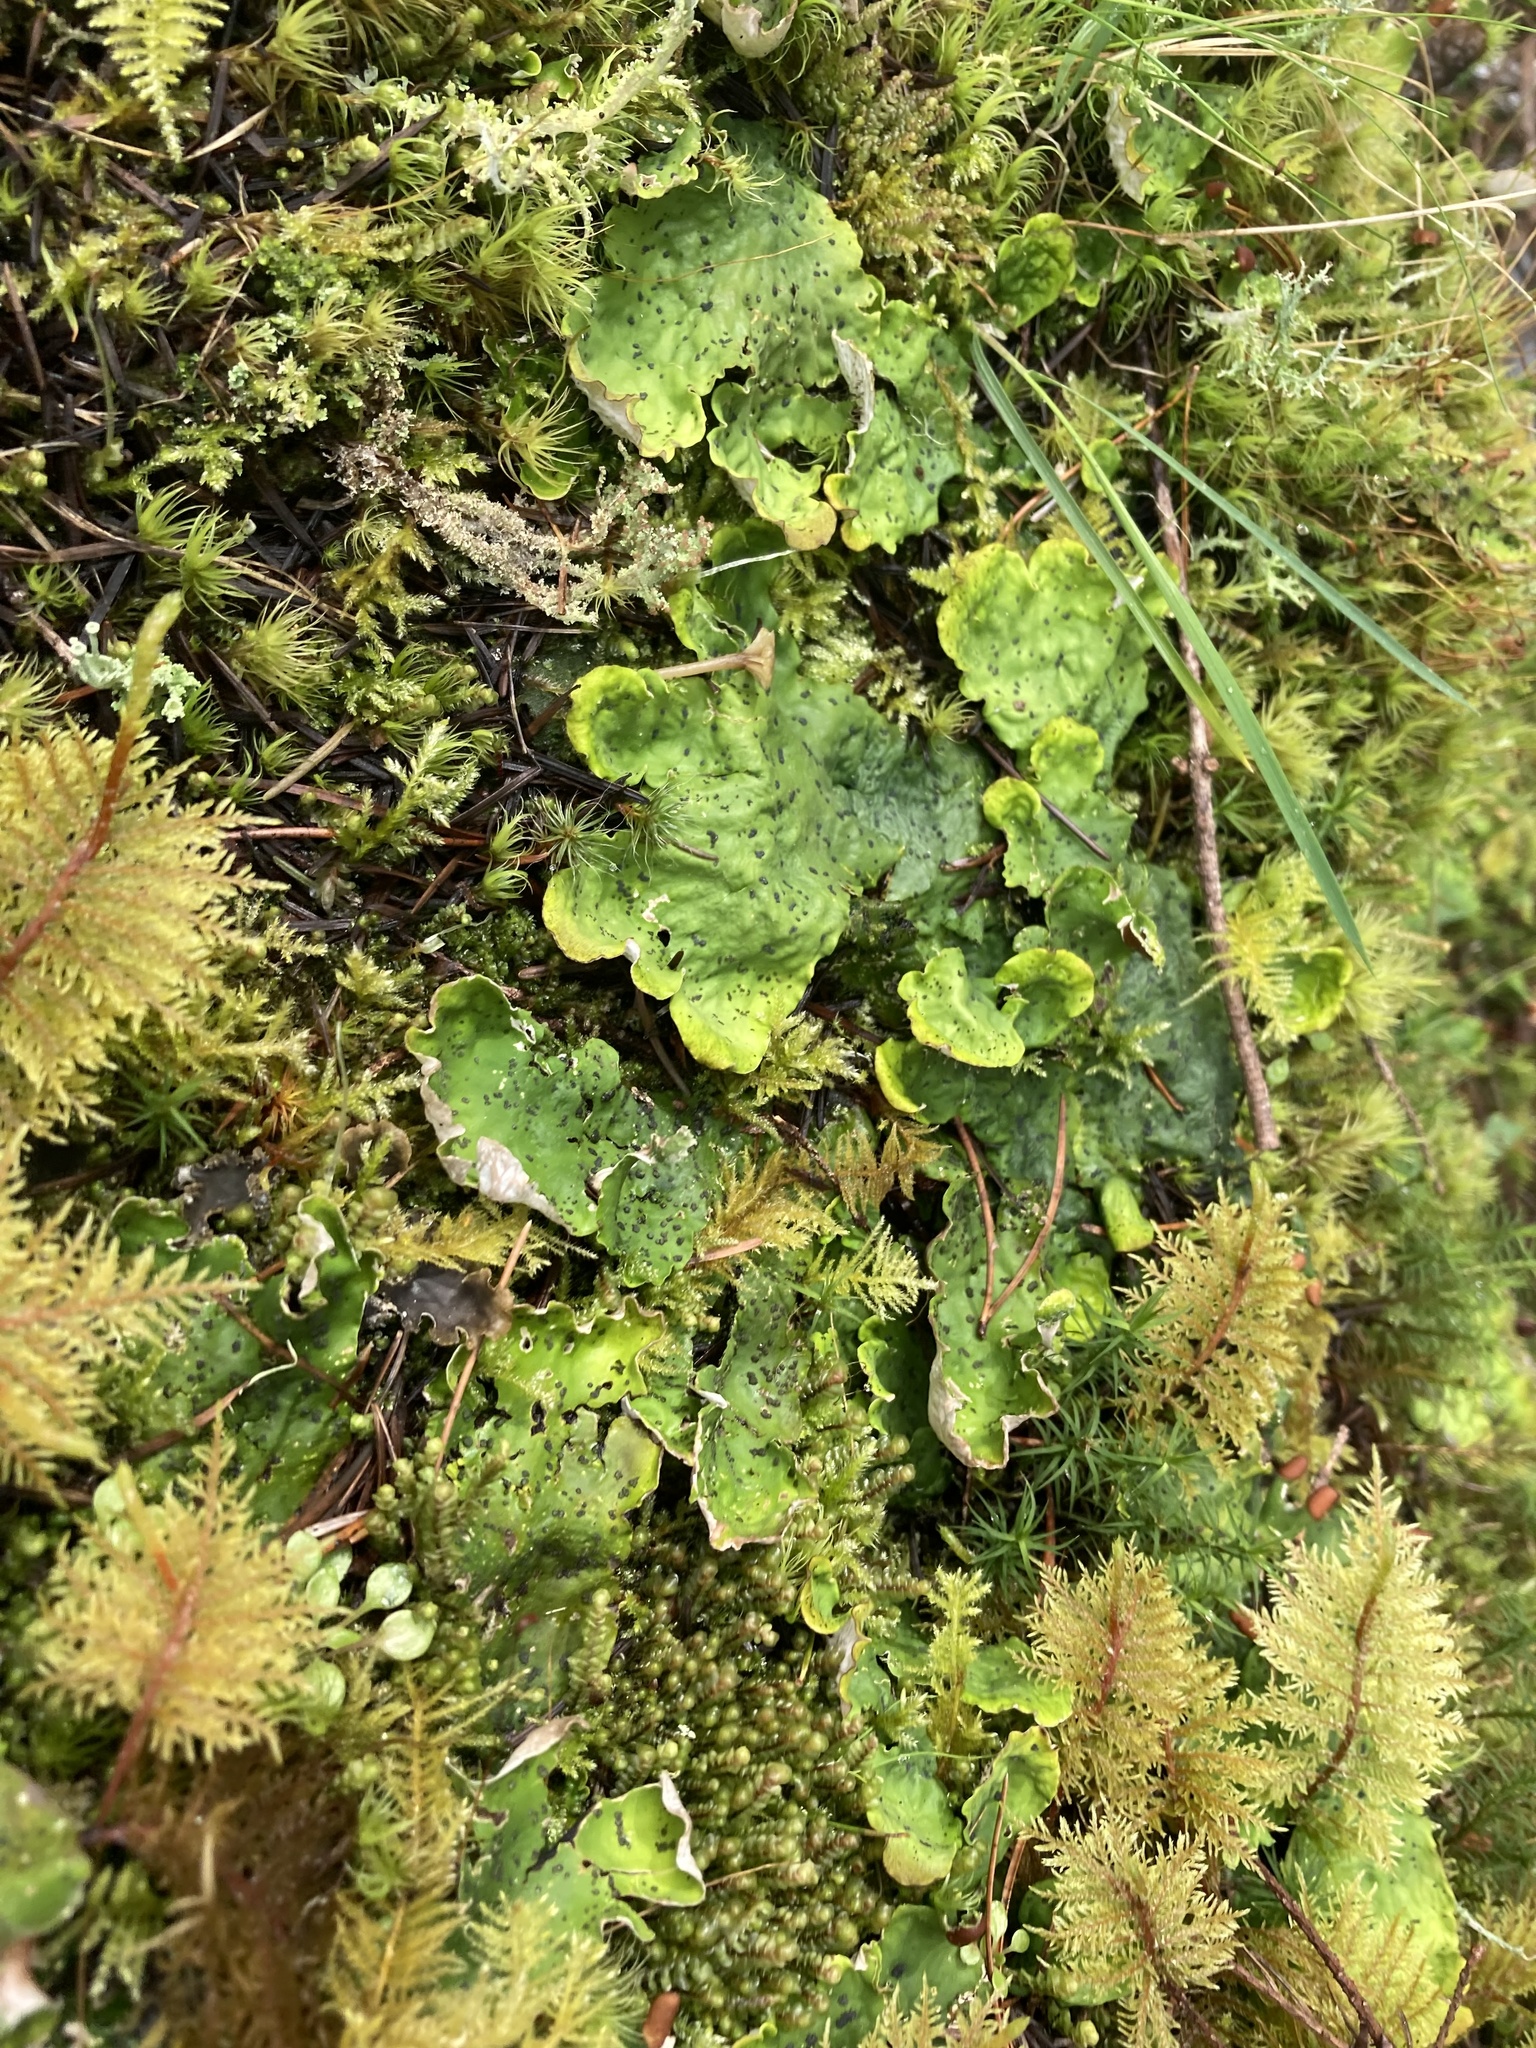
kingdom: Fungi
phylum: Ascomycota
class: Lecanoromycetes
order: Peltigerales
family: Peltigeraceae
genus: Peltigera
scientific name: Peltigera aphthosa
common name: Common freckle pelt lichen
